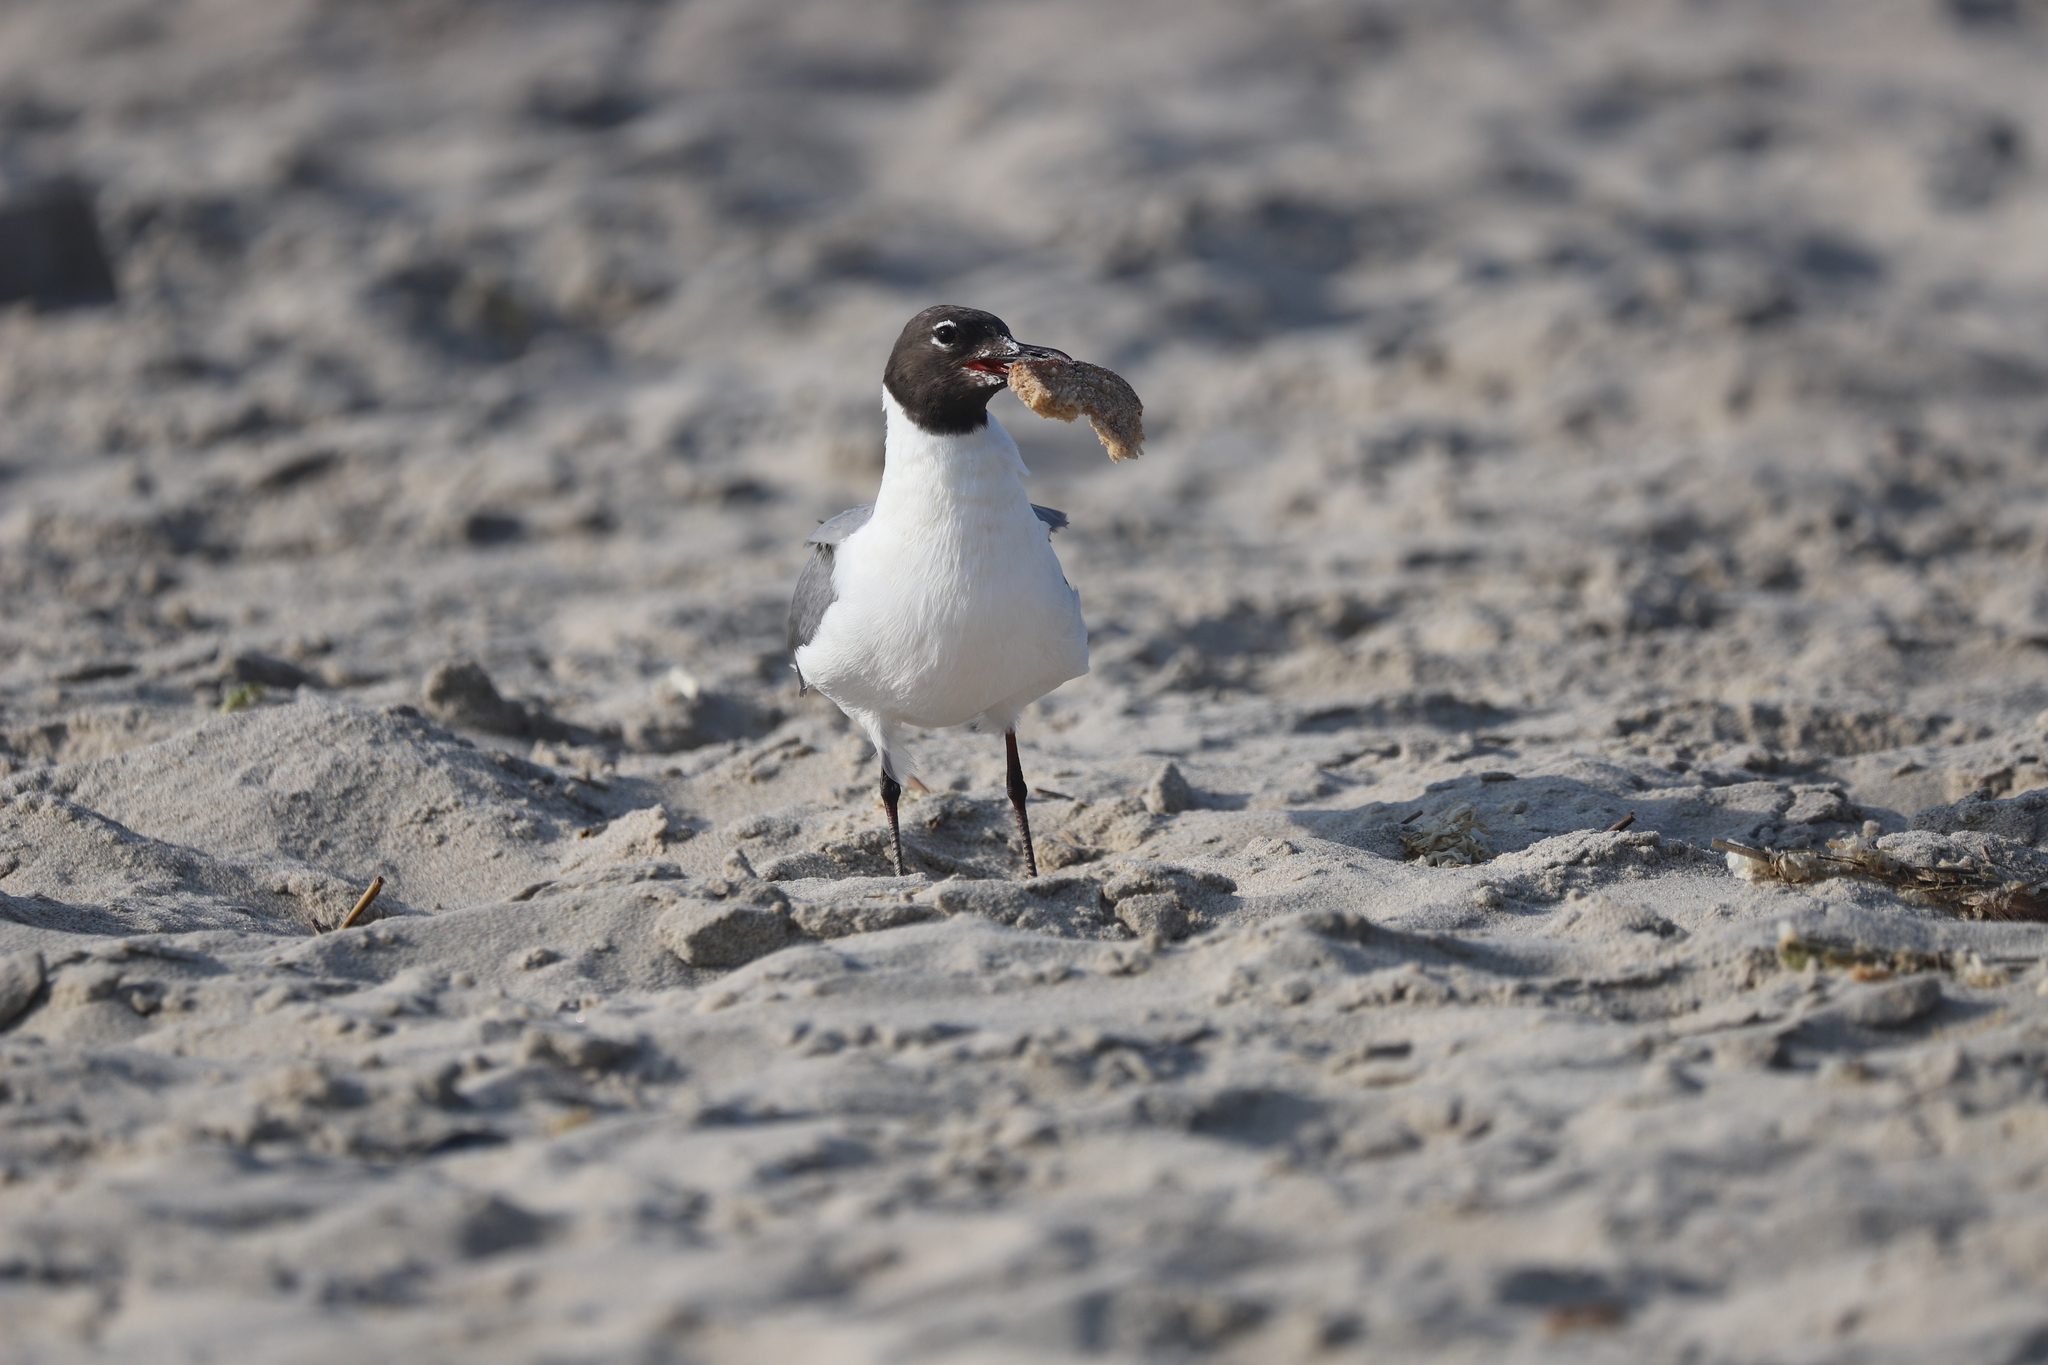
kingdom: Animalia
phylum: Chordata
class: Aves
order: Charadriiformes
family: Laridae
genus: Leucophaeus
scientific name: Leucophaeus atricilla
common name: Laughing gull
